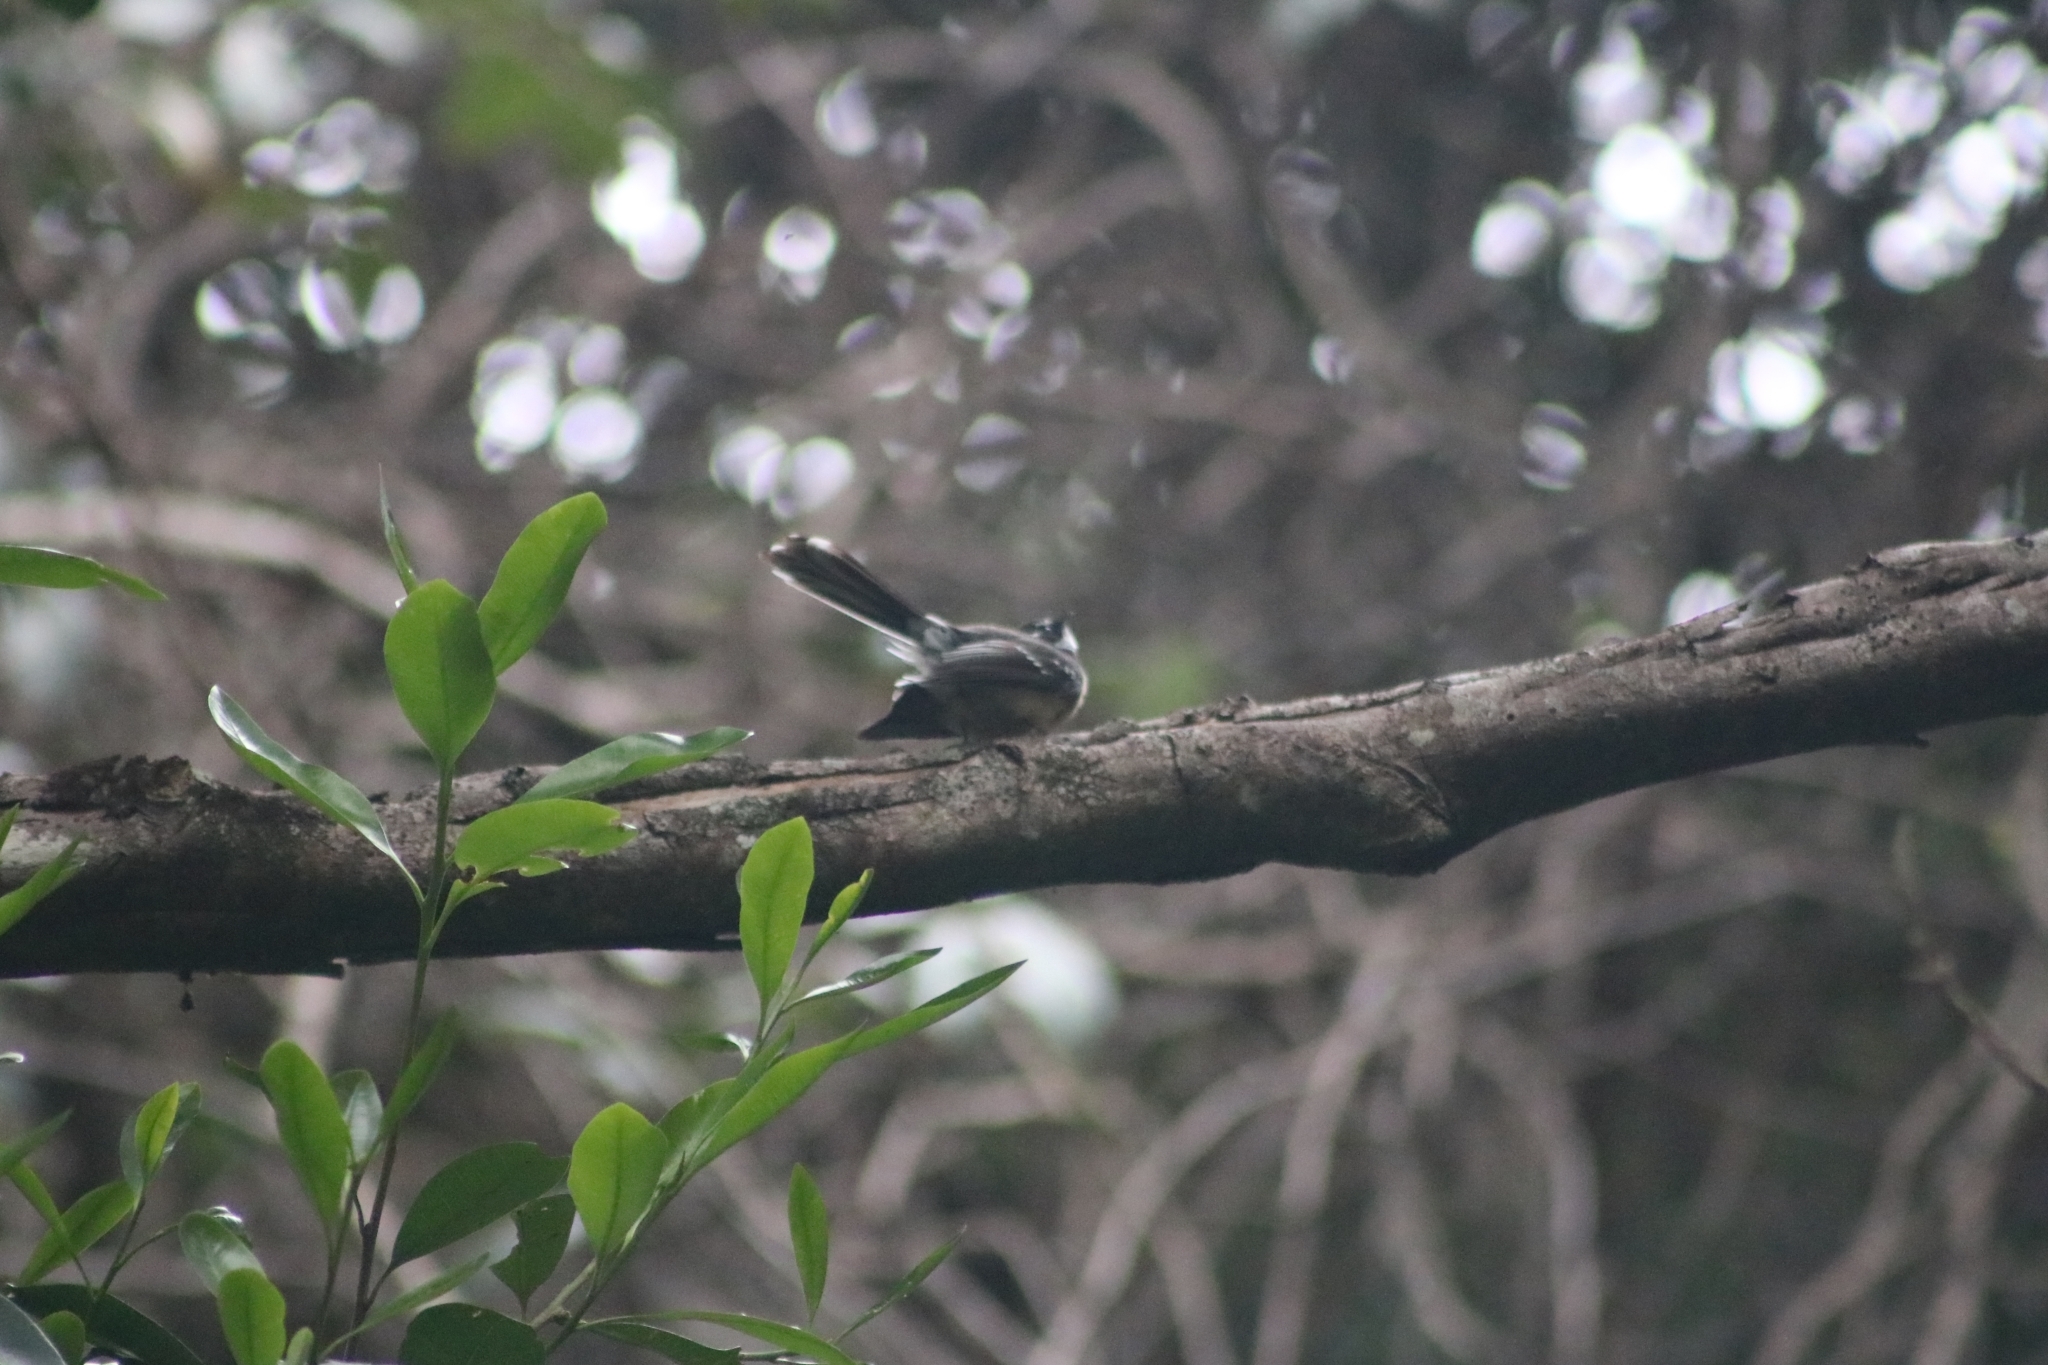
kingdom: Animalia
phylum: Chordata
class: Aves
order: Passeriformes
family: Rhipiduridae
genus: Rhipidura
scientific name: Rhipidura albiscapa
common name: Grey fantail
